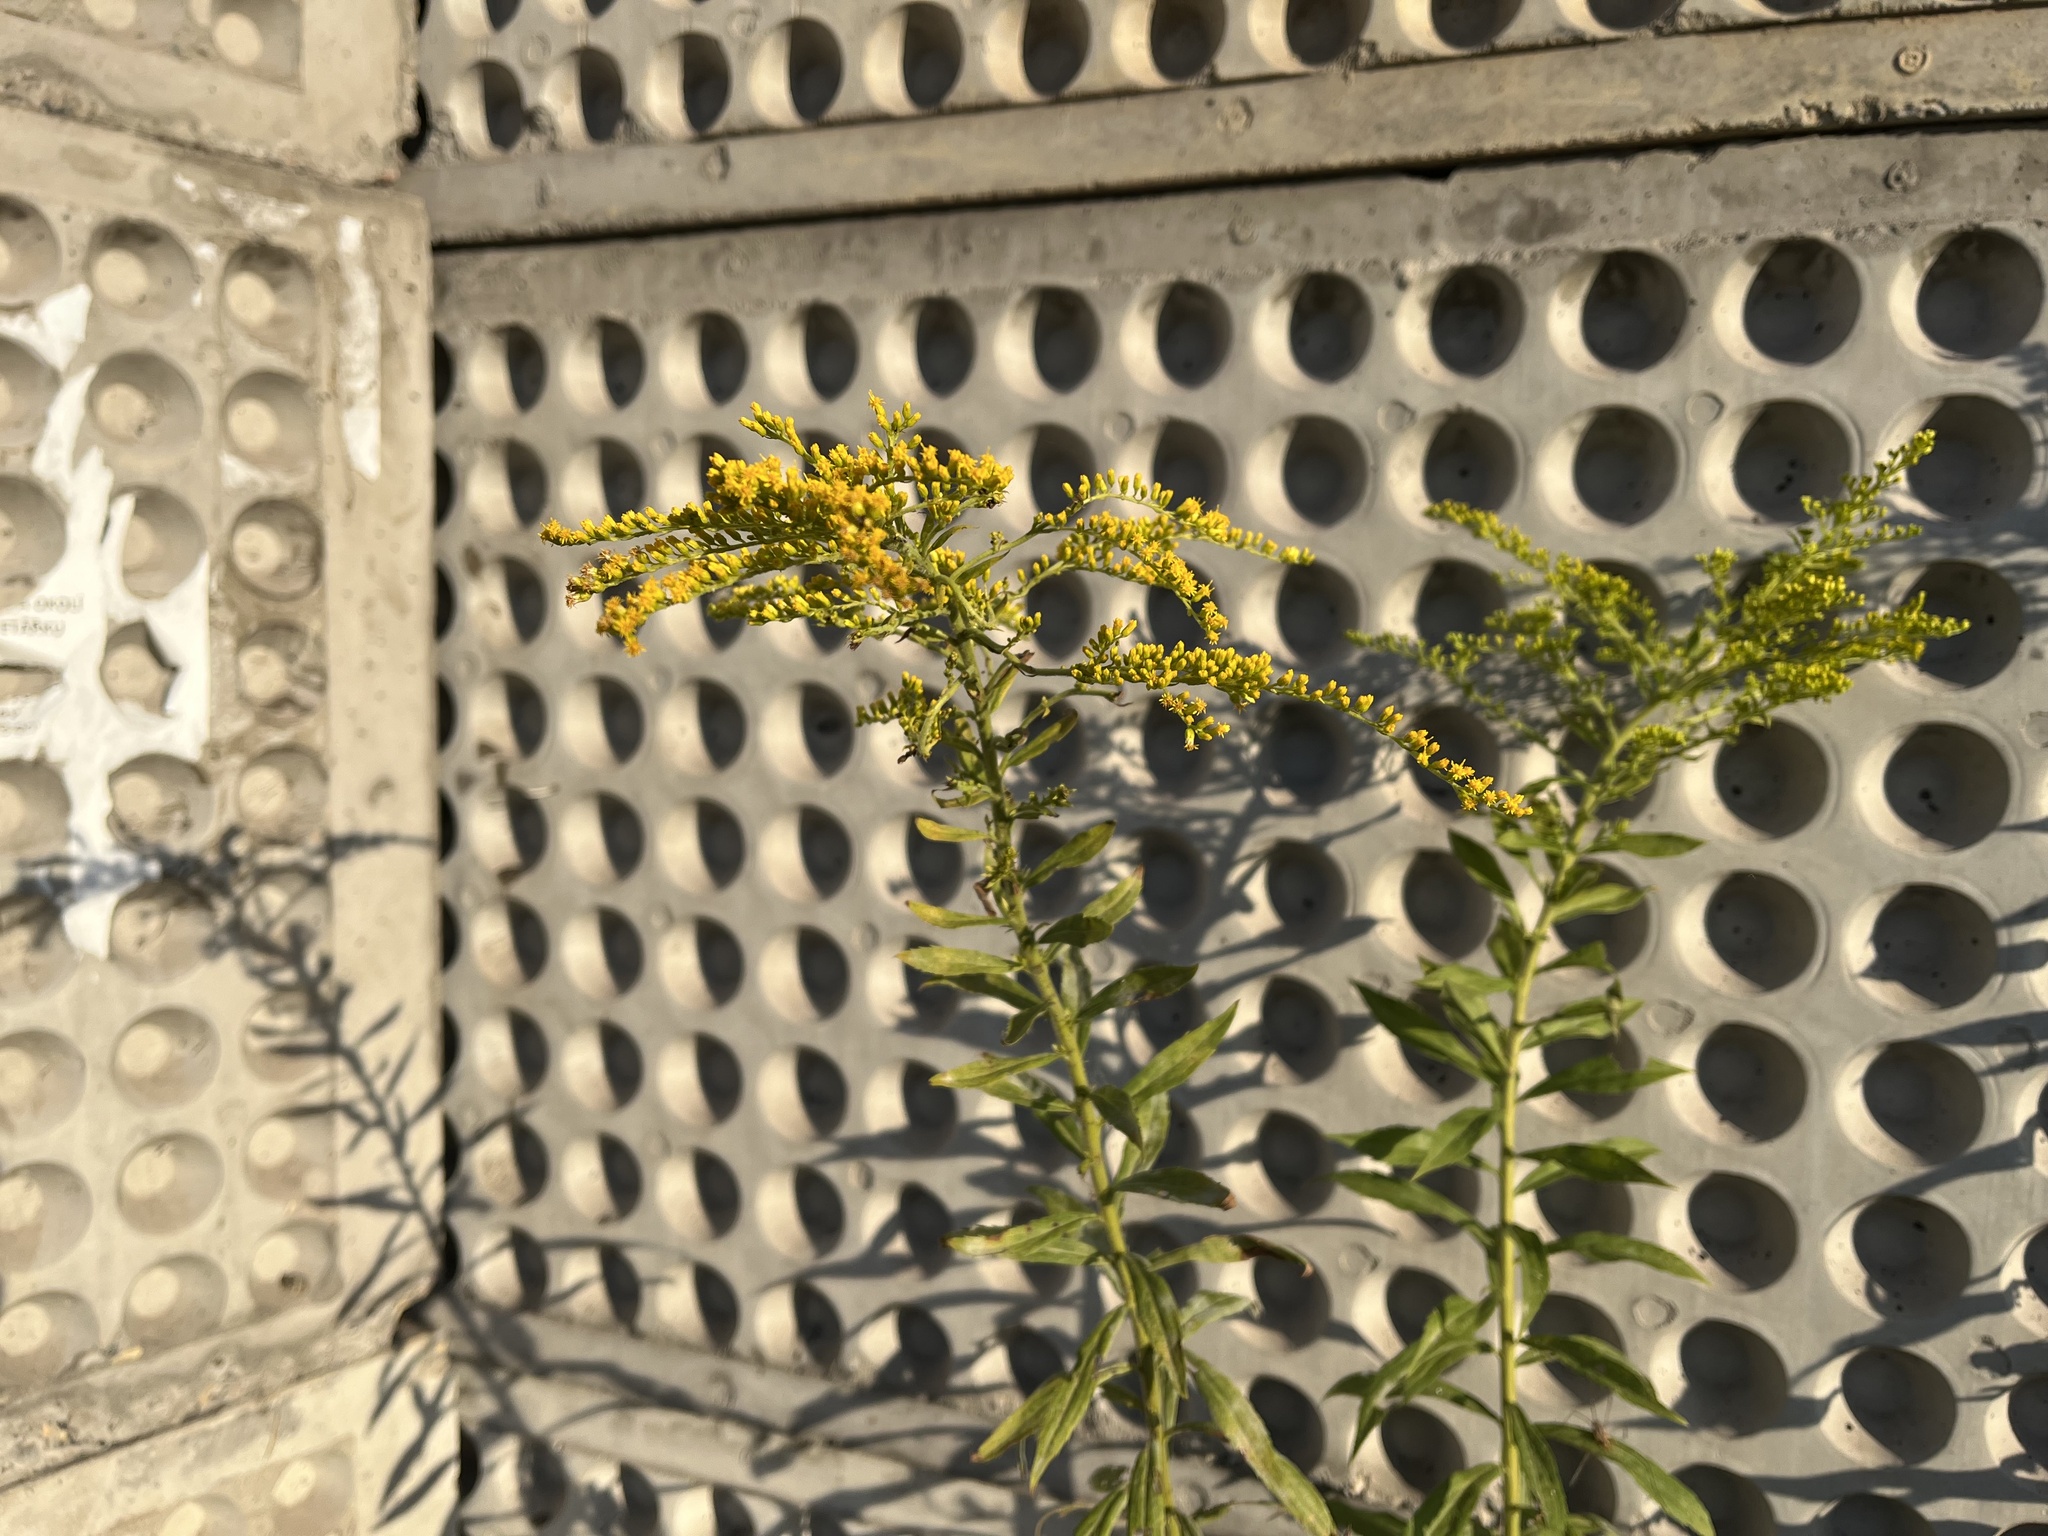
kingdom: Plantae
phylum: Tracheophyta
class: Magnoliopsida
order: Asterales
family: Asteraceae
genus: Solidago
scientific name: Solidago canadensis
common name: Canada goldenrod
